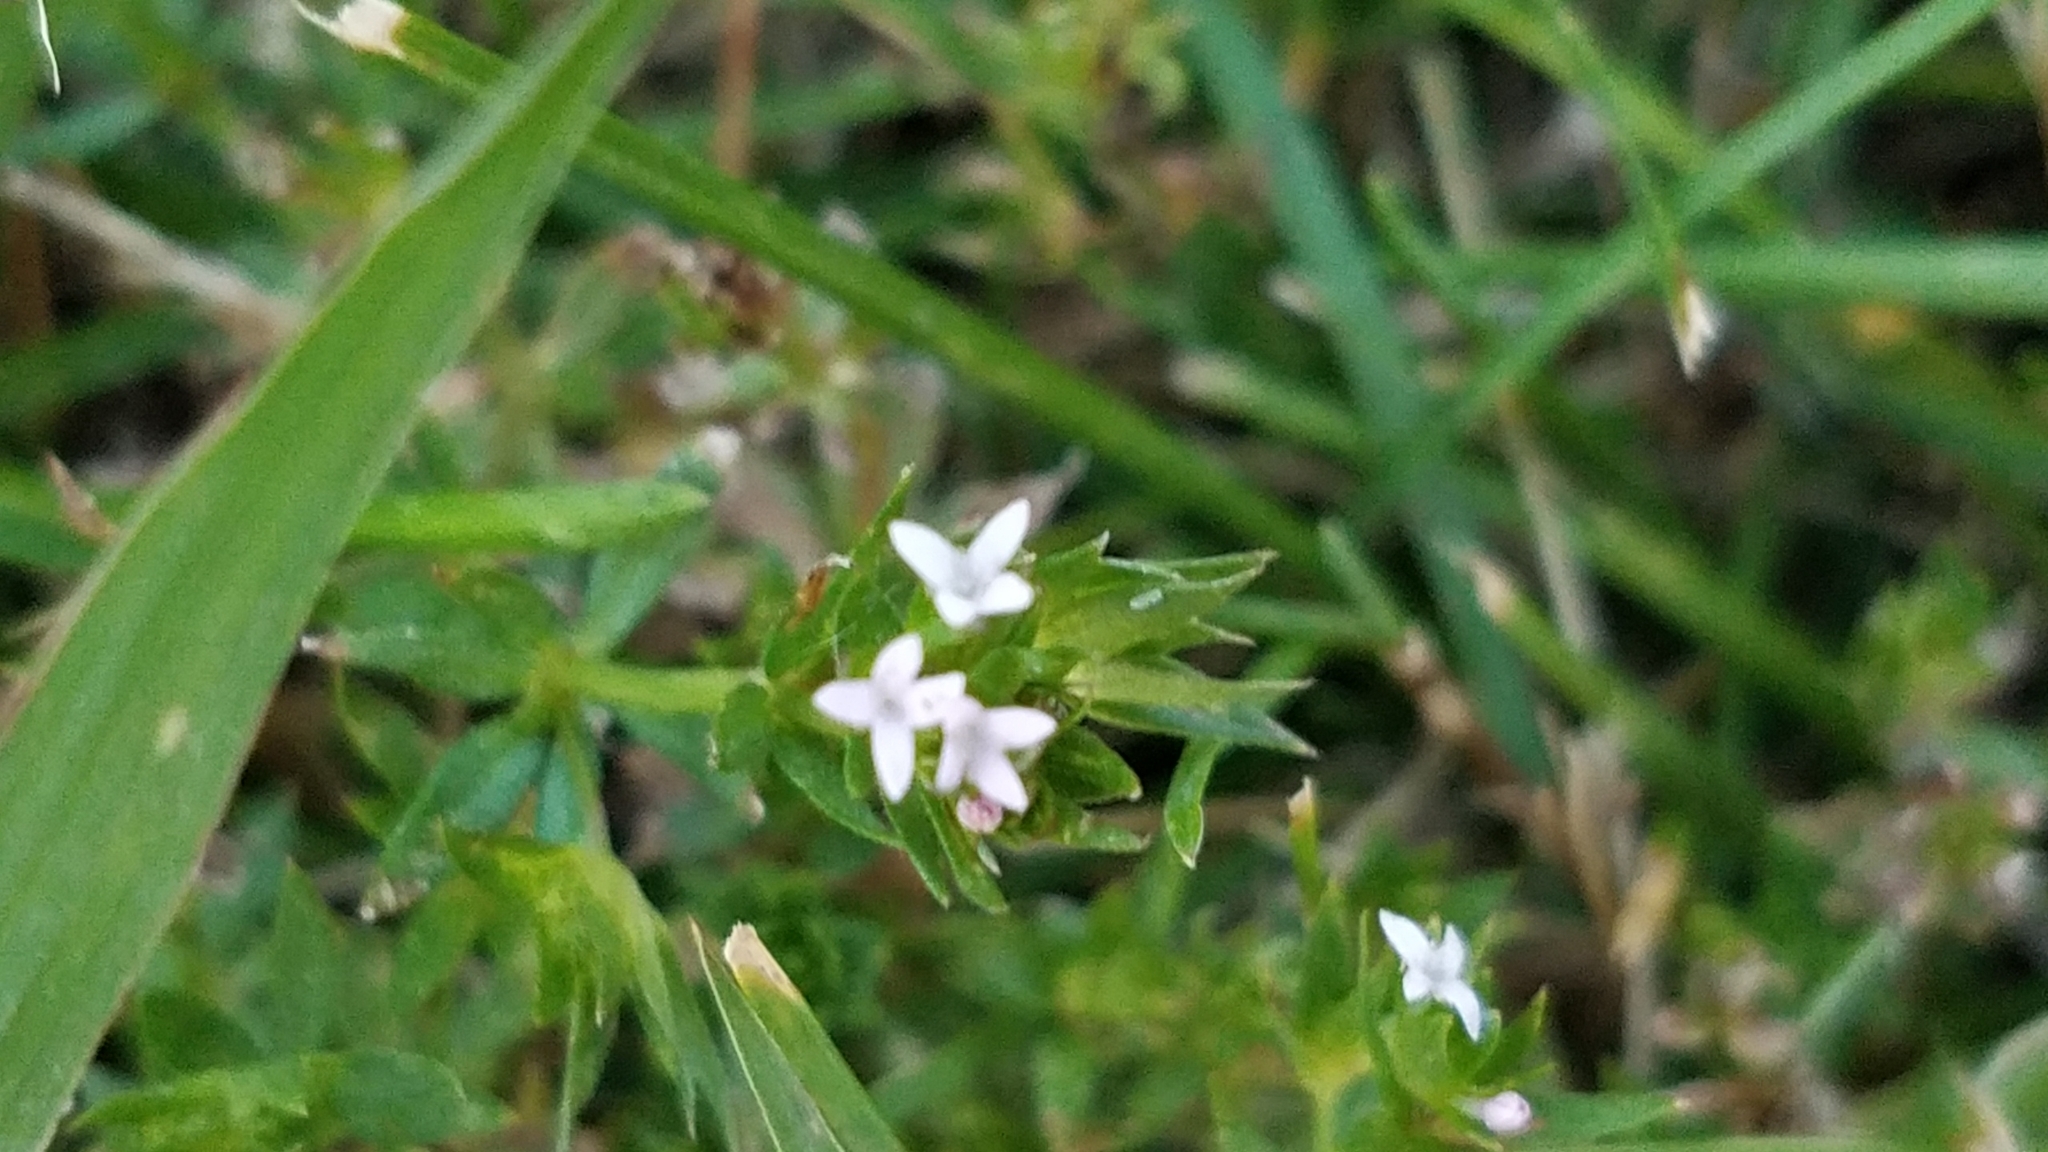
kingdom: Plantae
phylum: Tracheophyta
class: Magnoliopsida
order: Gentianales
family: Rubiaceae
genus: Sherardia
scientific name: Sherardia arvensis
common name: Field madder
